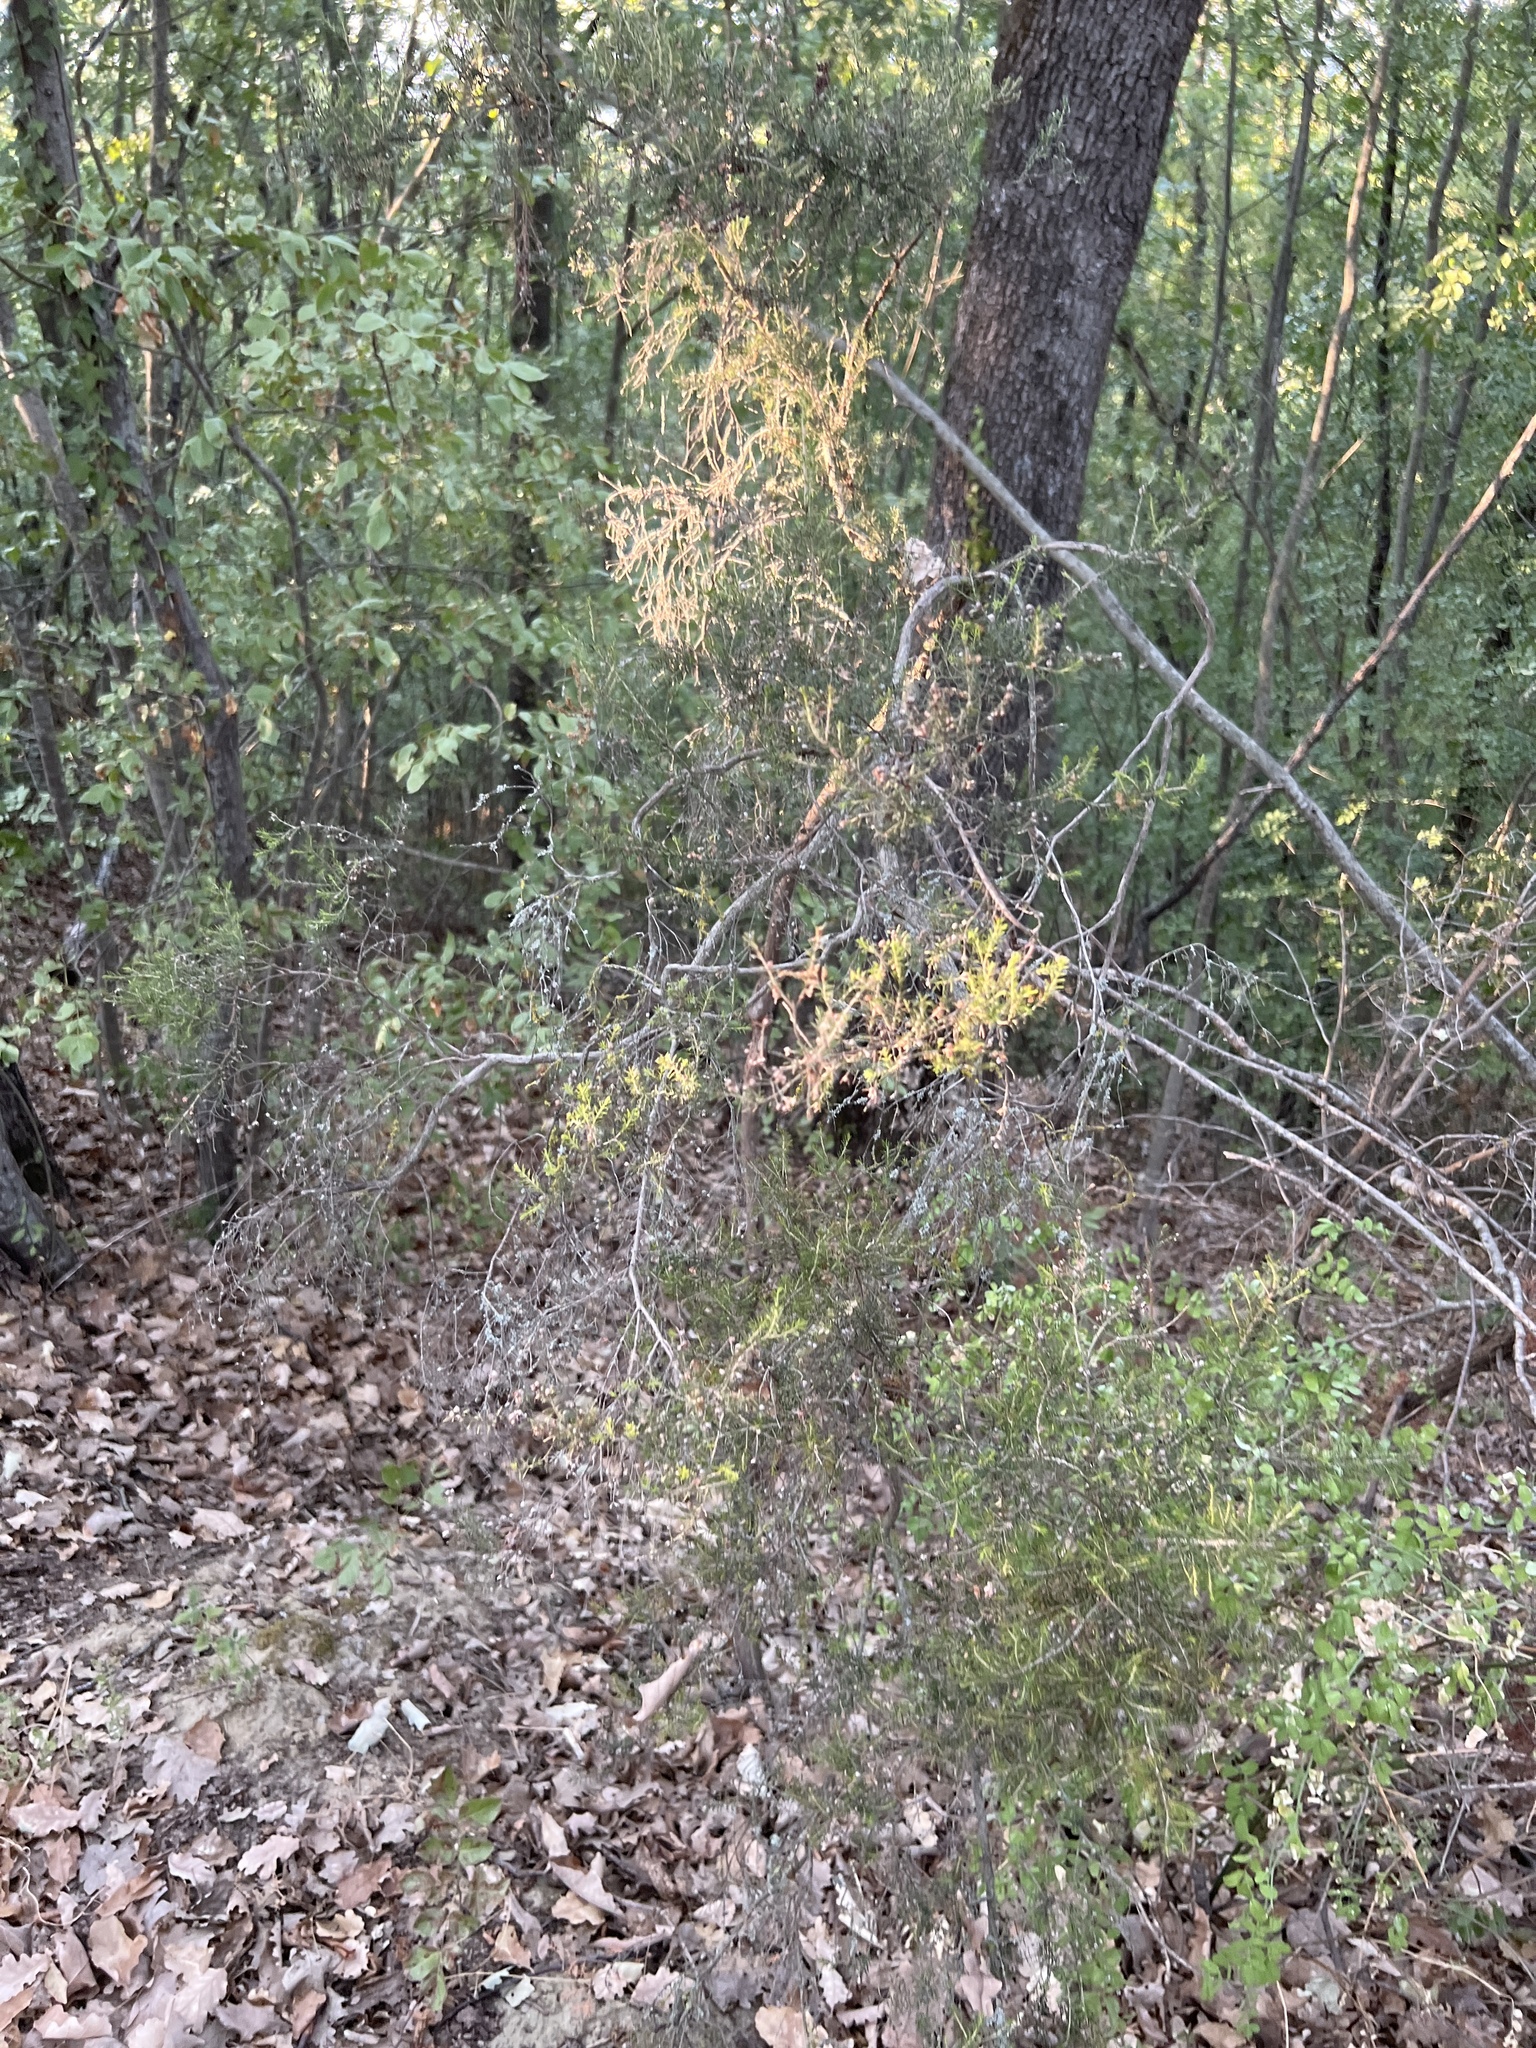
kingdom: Plantae
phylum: Tracheophyta
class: Magnoliopsida
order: Ericales
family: Ericaceae
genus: Erica
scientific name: Erica arborea
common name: Tree heath
